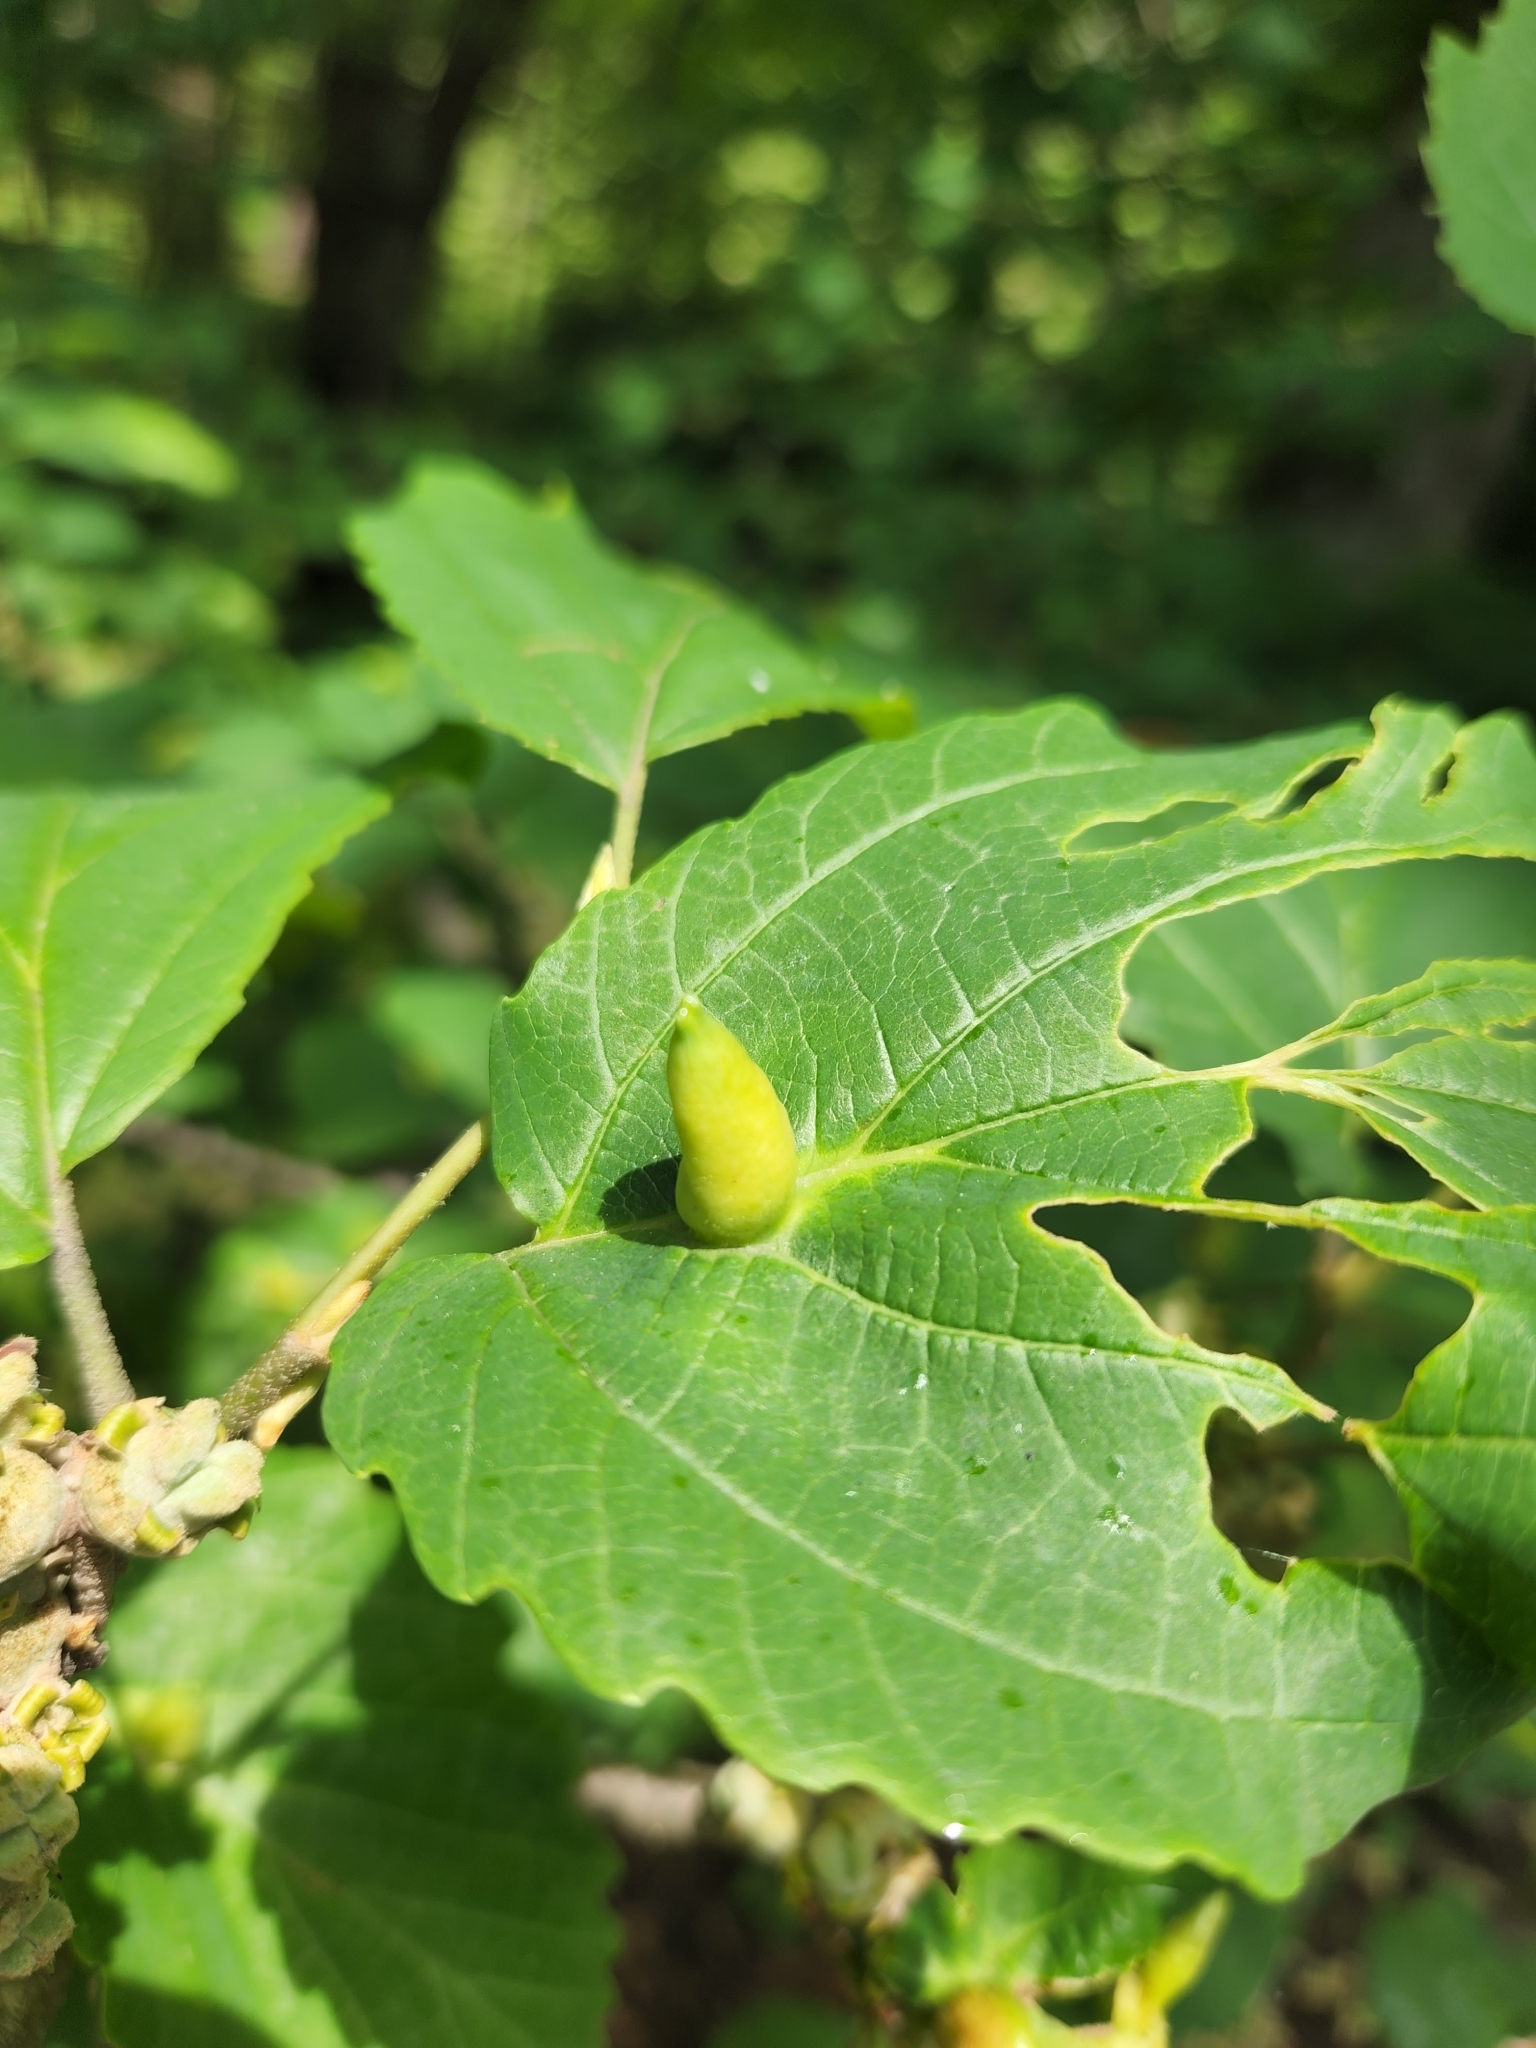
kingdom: Animalia
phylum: Arthropoda
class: Insecta
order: Hemiptera
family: Aphididae
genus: Hormaphis
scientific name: Hormaphis hamamelidis
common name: Witch-hazel cone gall aphid
